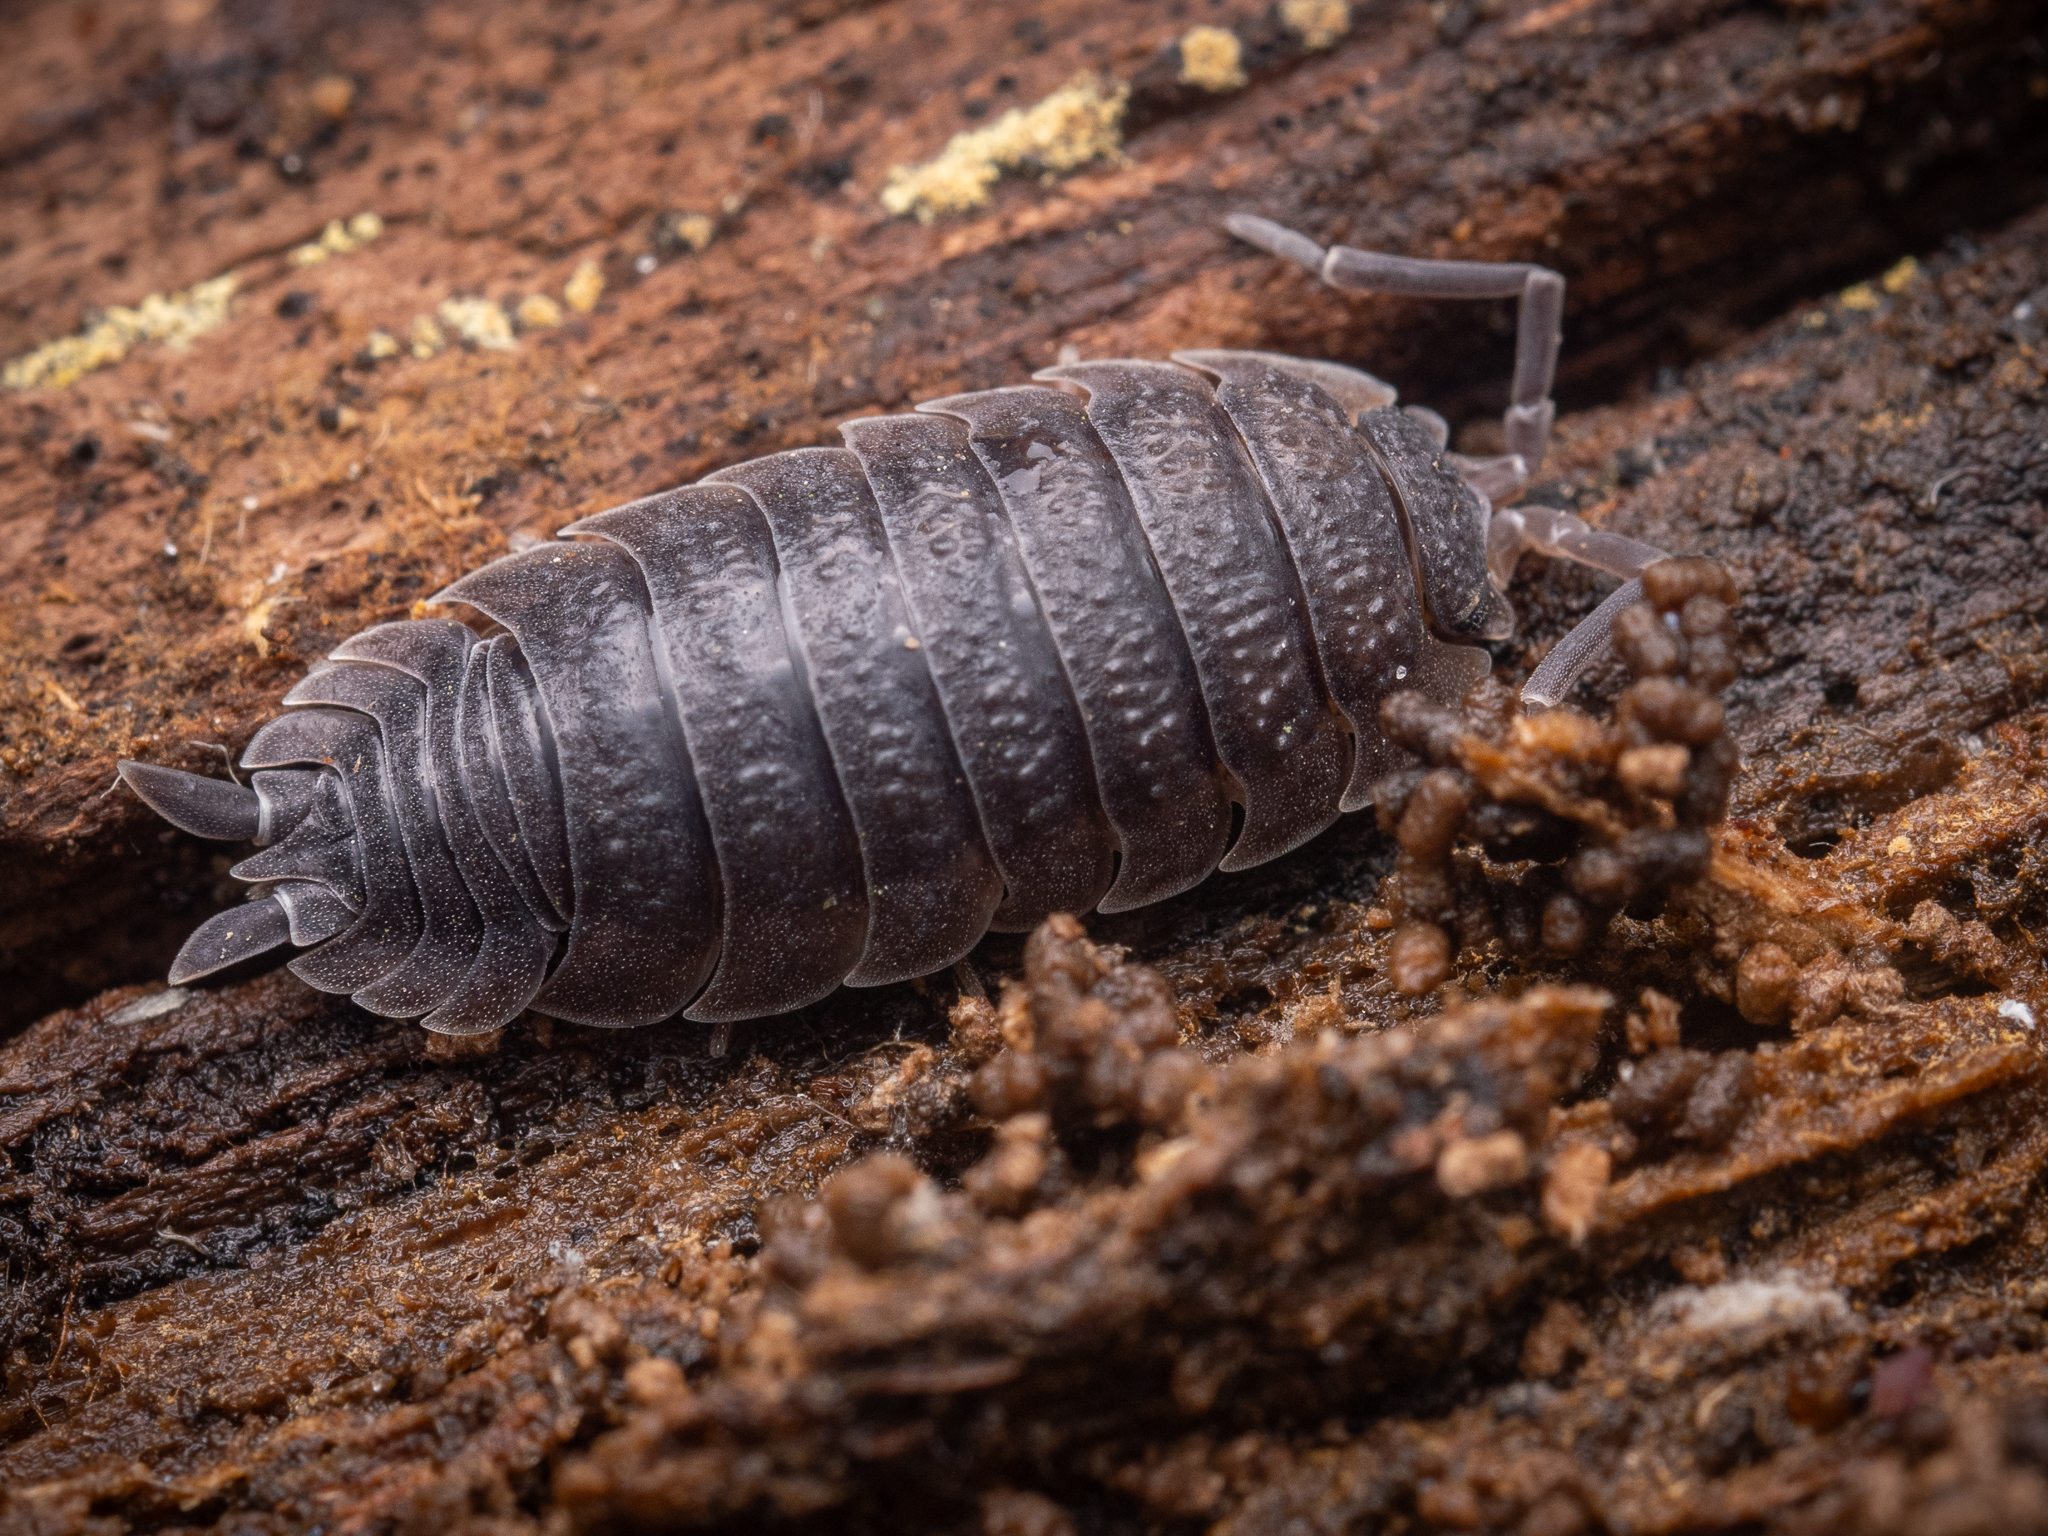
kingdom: Animalia
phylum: Arthropoda
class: Malacostraca
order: Isopoda
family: Porcellionidae
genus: Porcellio
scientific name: Porcellio scaber
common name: Common rough woodlouse
